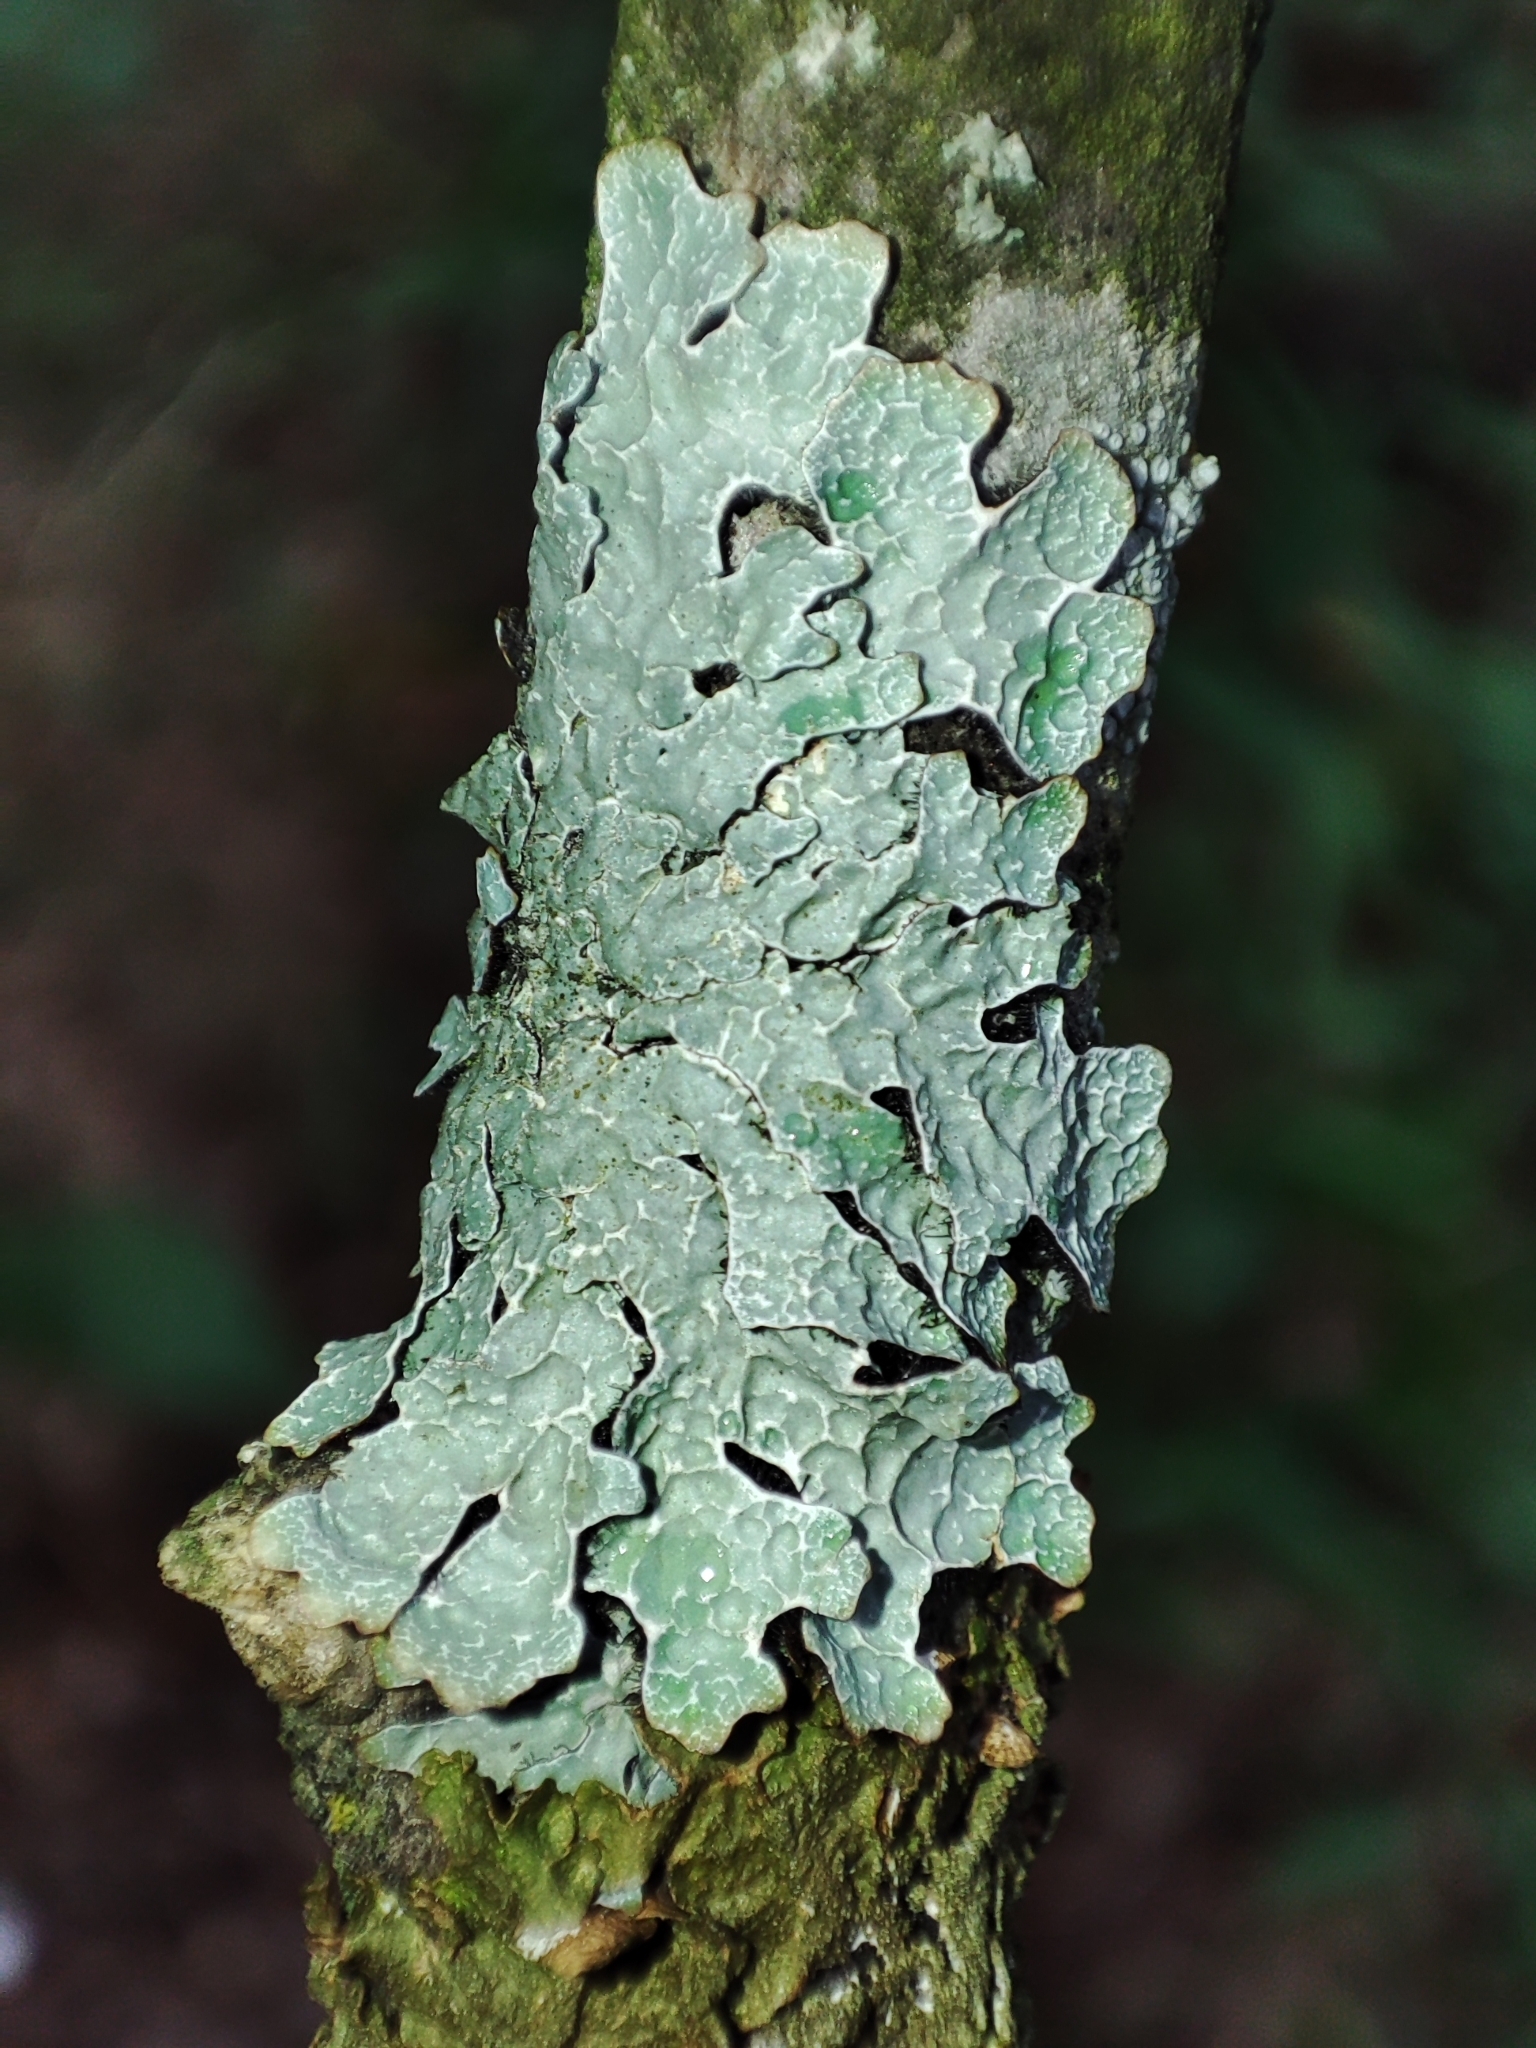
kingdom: Fungi
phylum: Ascomycota
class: Lecanoromycetes
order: Lecanorales
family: Parmeliaceae
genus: Parmelia
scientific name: Parmelia sulcata
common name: Netted shield lichen
